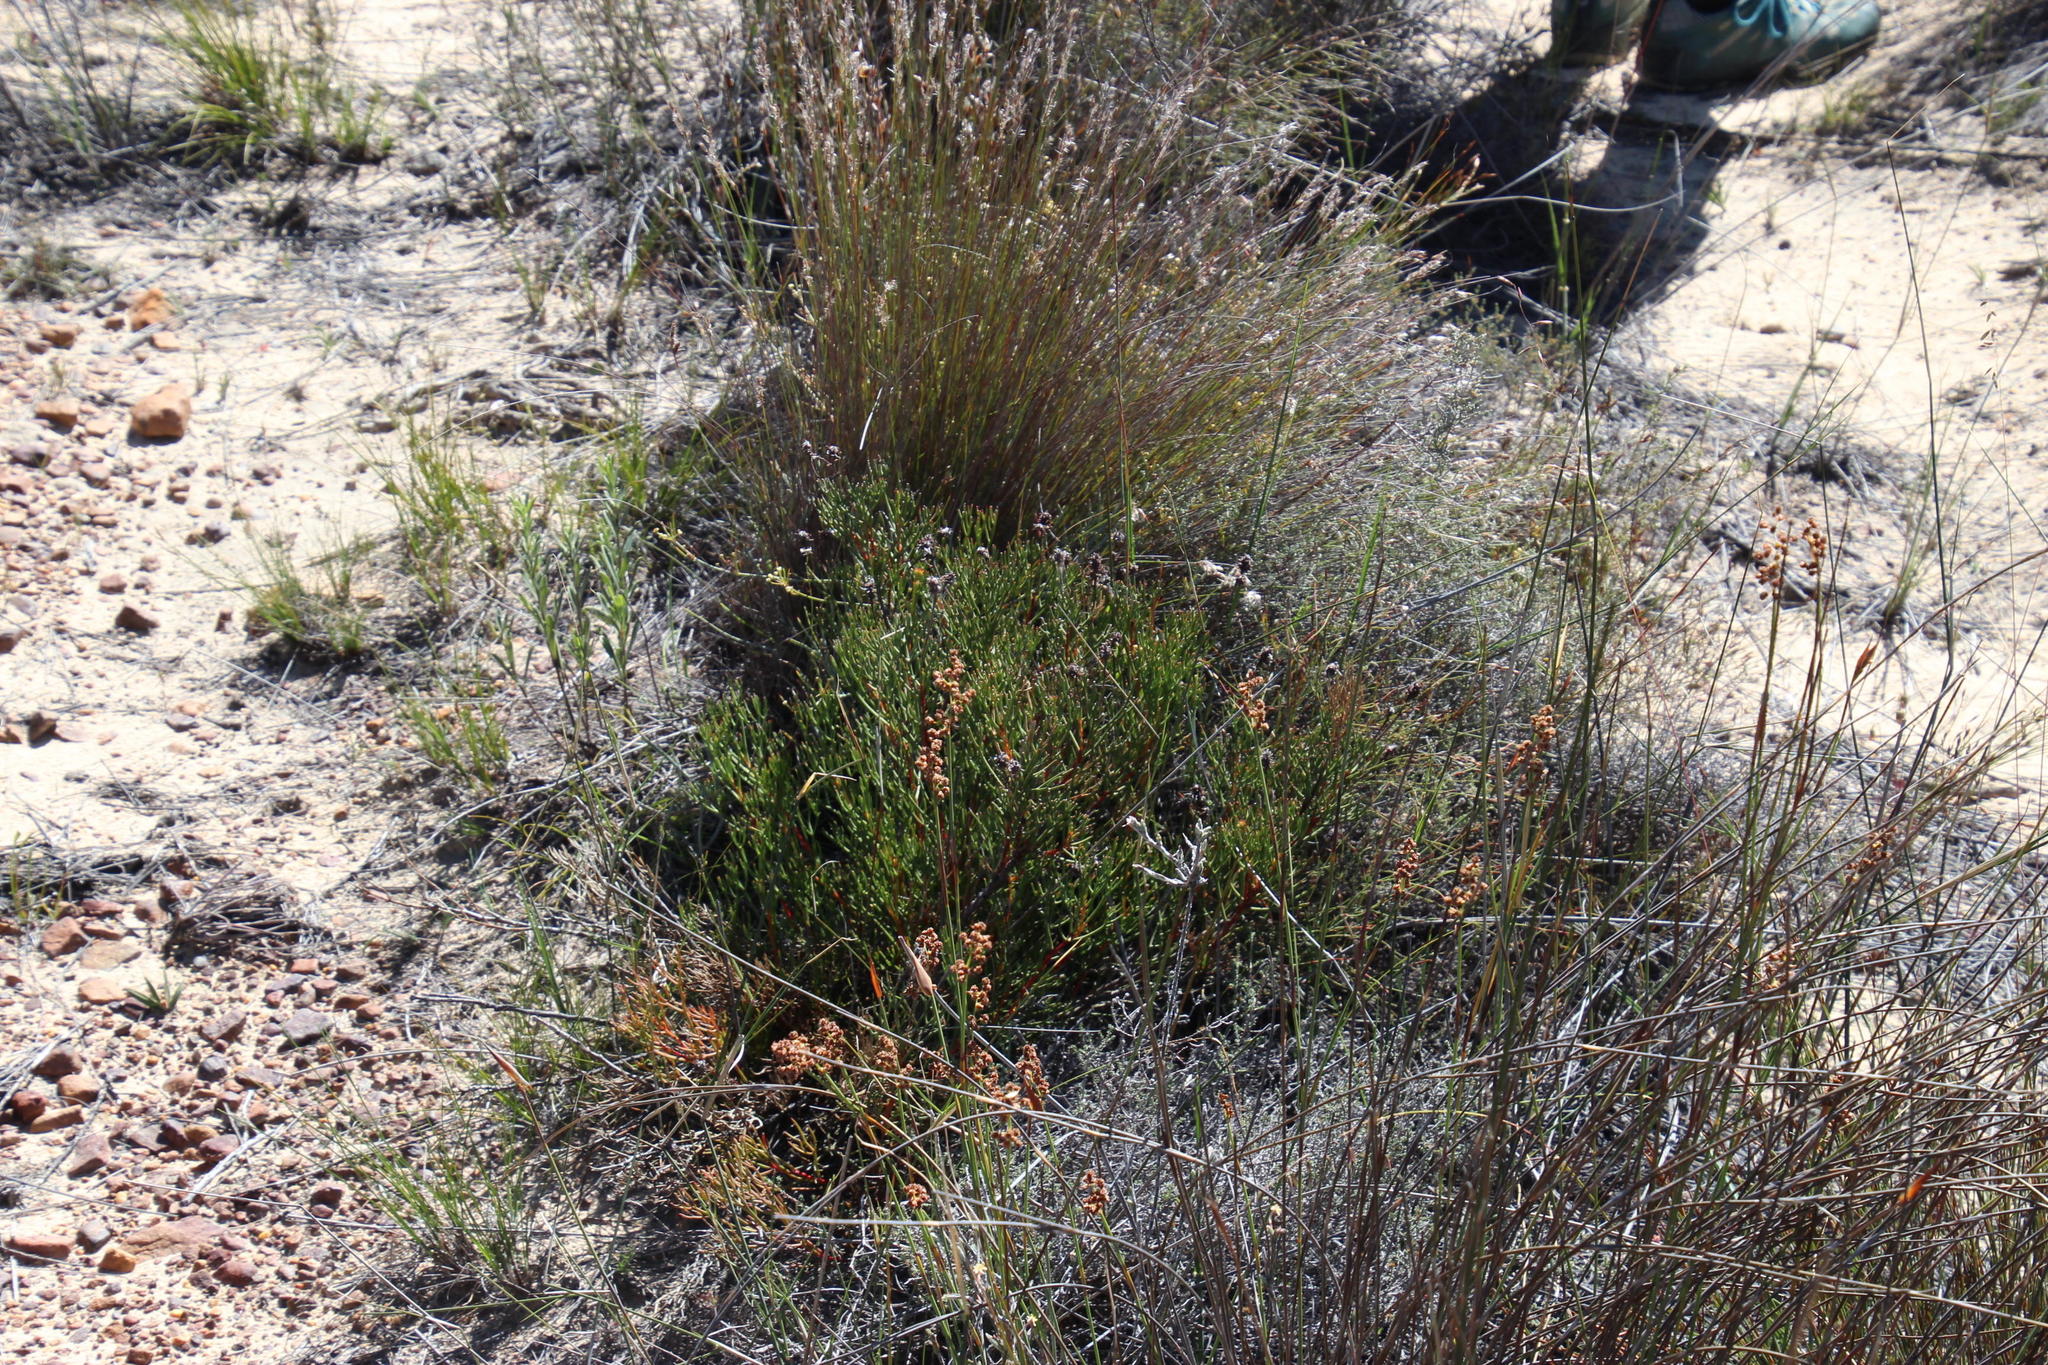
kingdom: Plantae
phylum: Tracheophyta
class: Magnoliopsida
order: Proteales
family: Proteaceae
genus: Serruria
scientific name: Serruria leipoldtii
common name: Leipoldt's spiderhead
